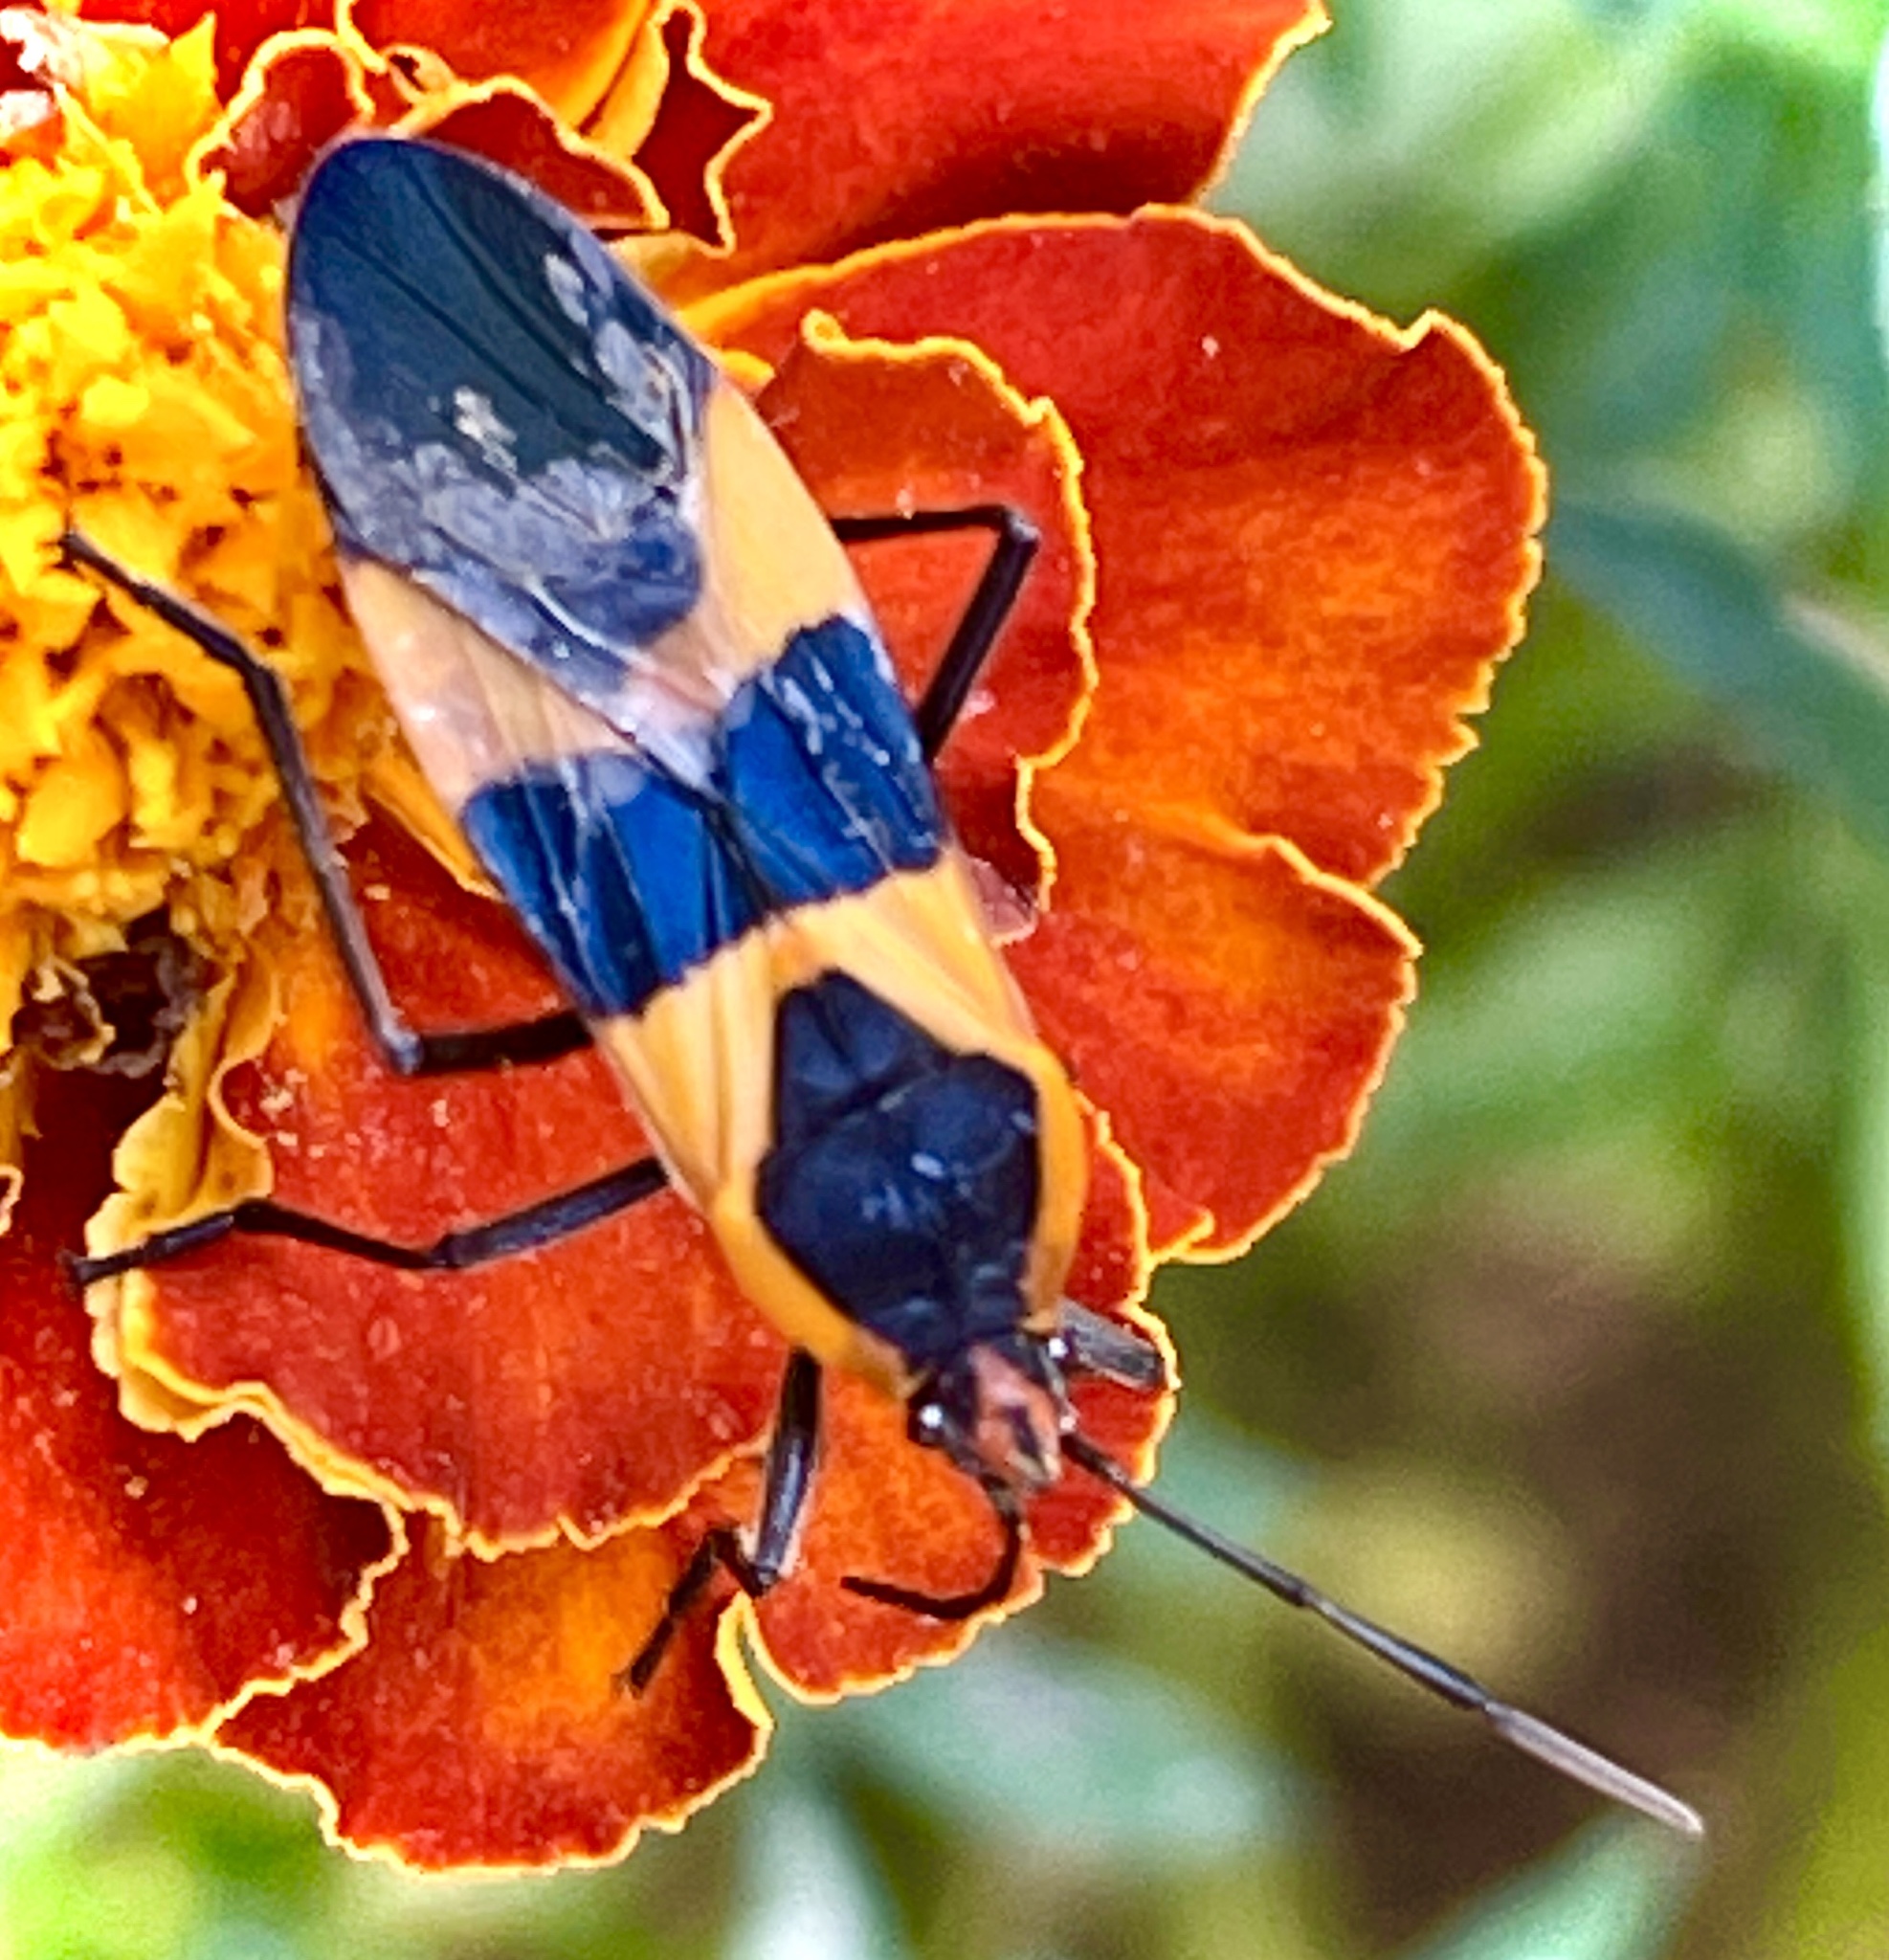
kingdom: Animalia
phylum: Arthropoda
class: Insecta
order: Hemiptera
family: Lygaeidae
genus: Oncopeltus
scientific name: Oncopeltus fasciatus
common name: Large milkweed bug
